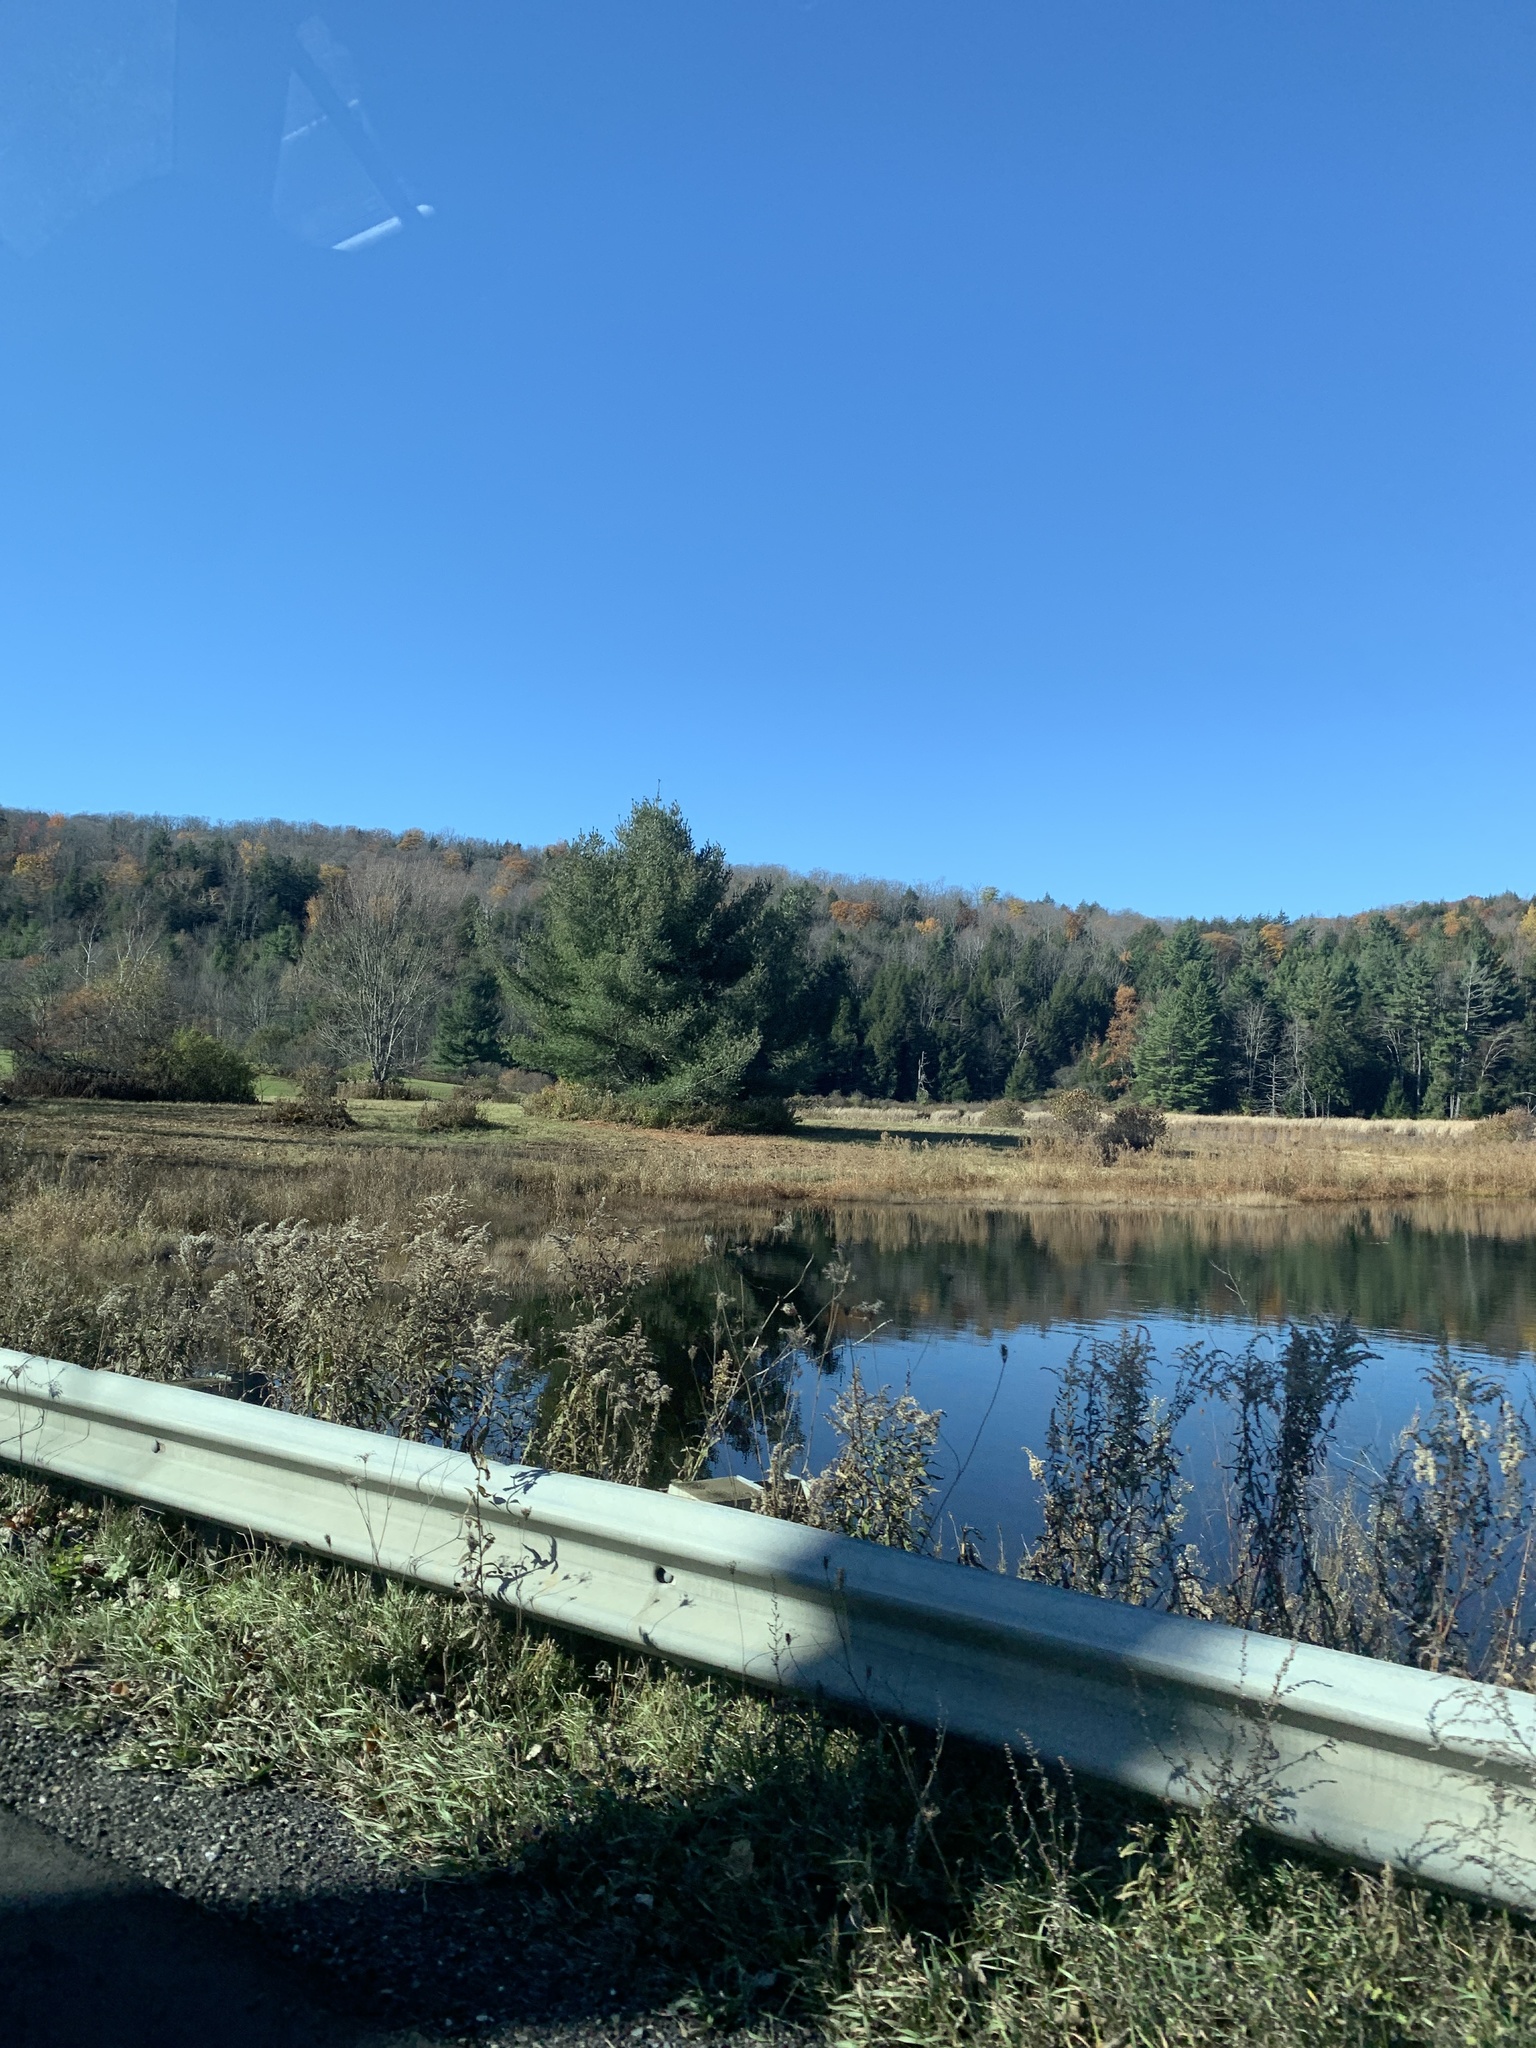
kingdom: Plantae
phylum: Tracheophyta
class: Pinopsida
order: Pinales
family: Pinaceae
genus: Pinus
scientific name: Pinus strobus
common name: Weymouth pine
